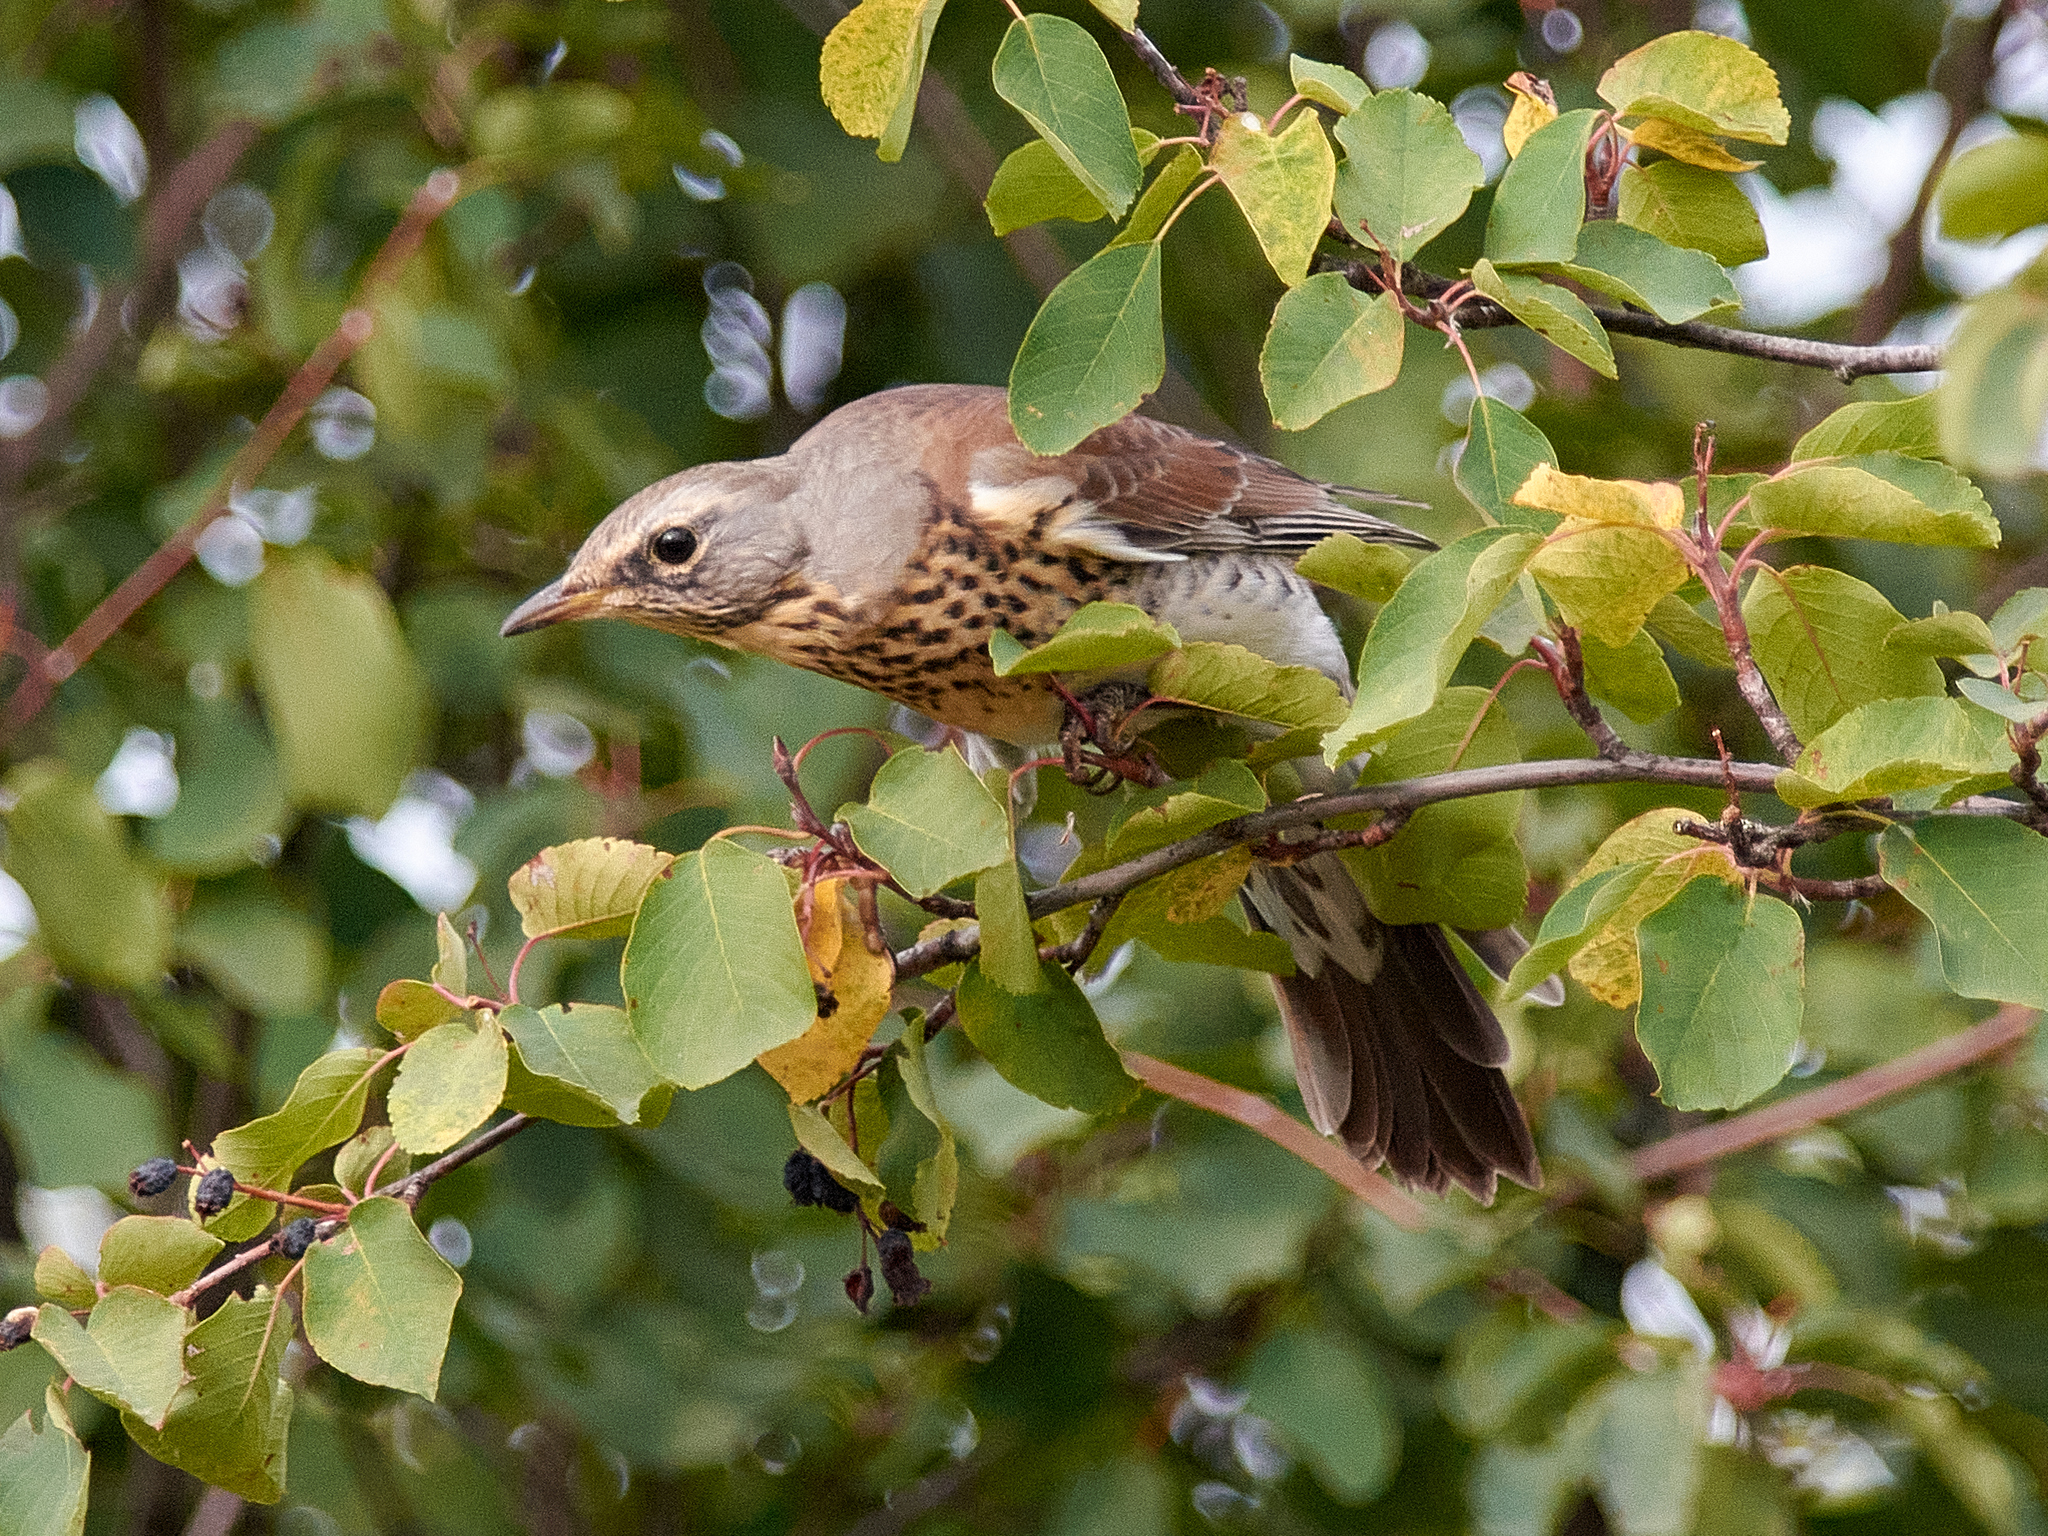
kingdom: Animalia
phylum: Chordata
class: Aves
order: Passeriformes
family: Turdidae
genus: Turdus
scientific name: Turdus pilaris
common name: Fieldfare
